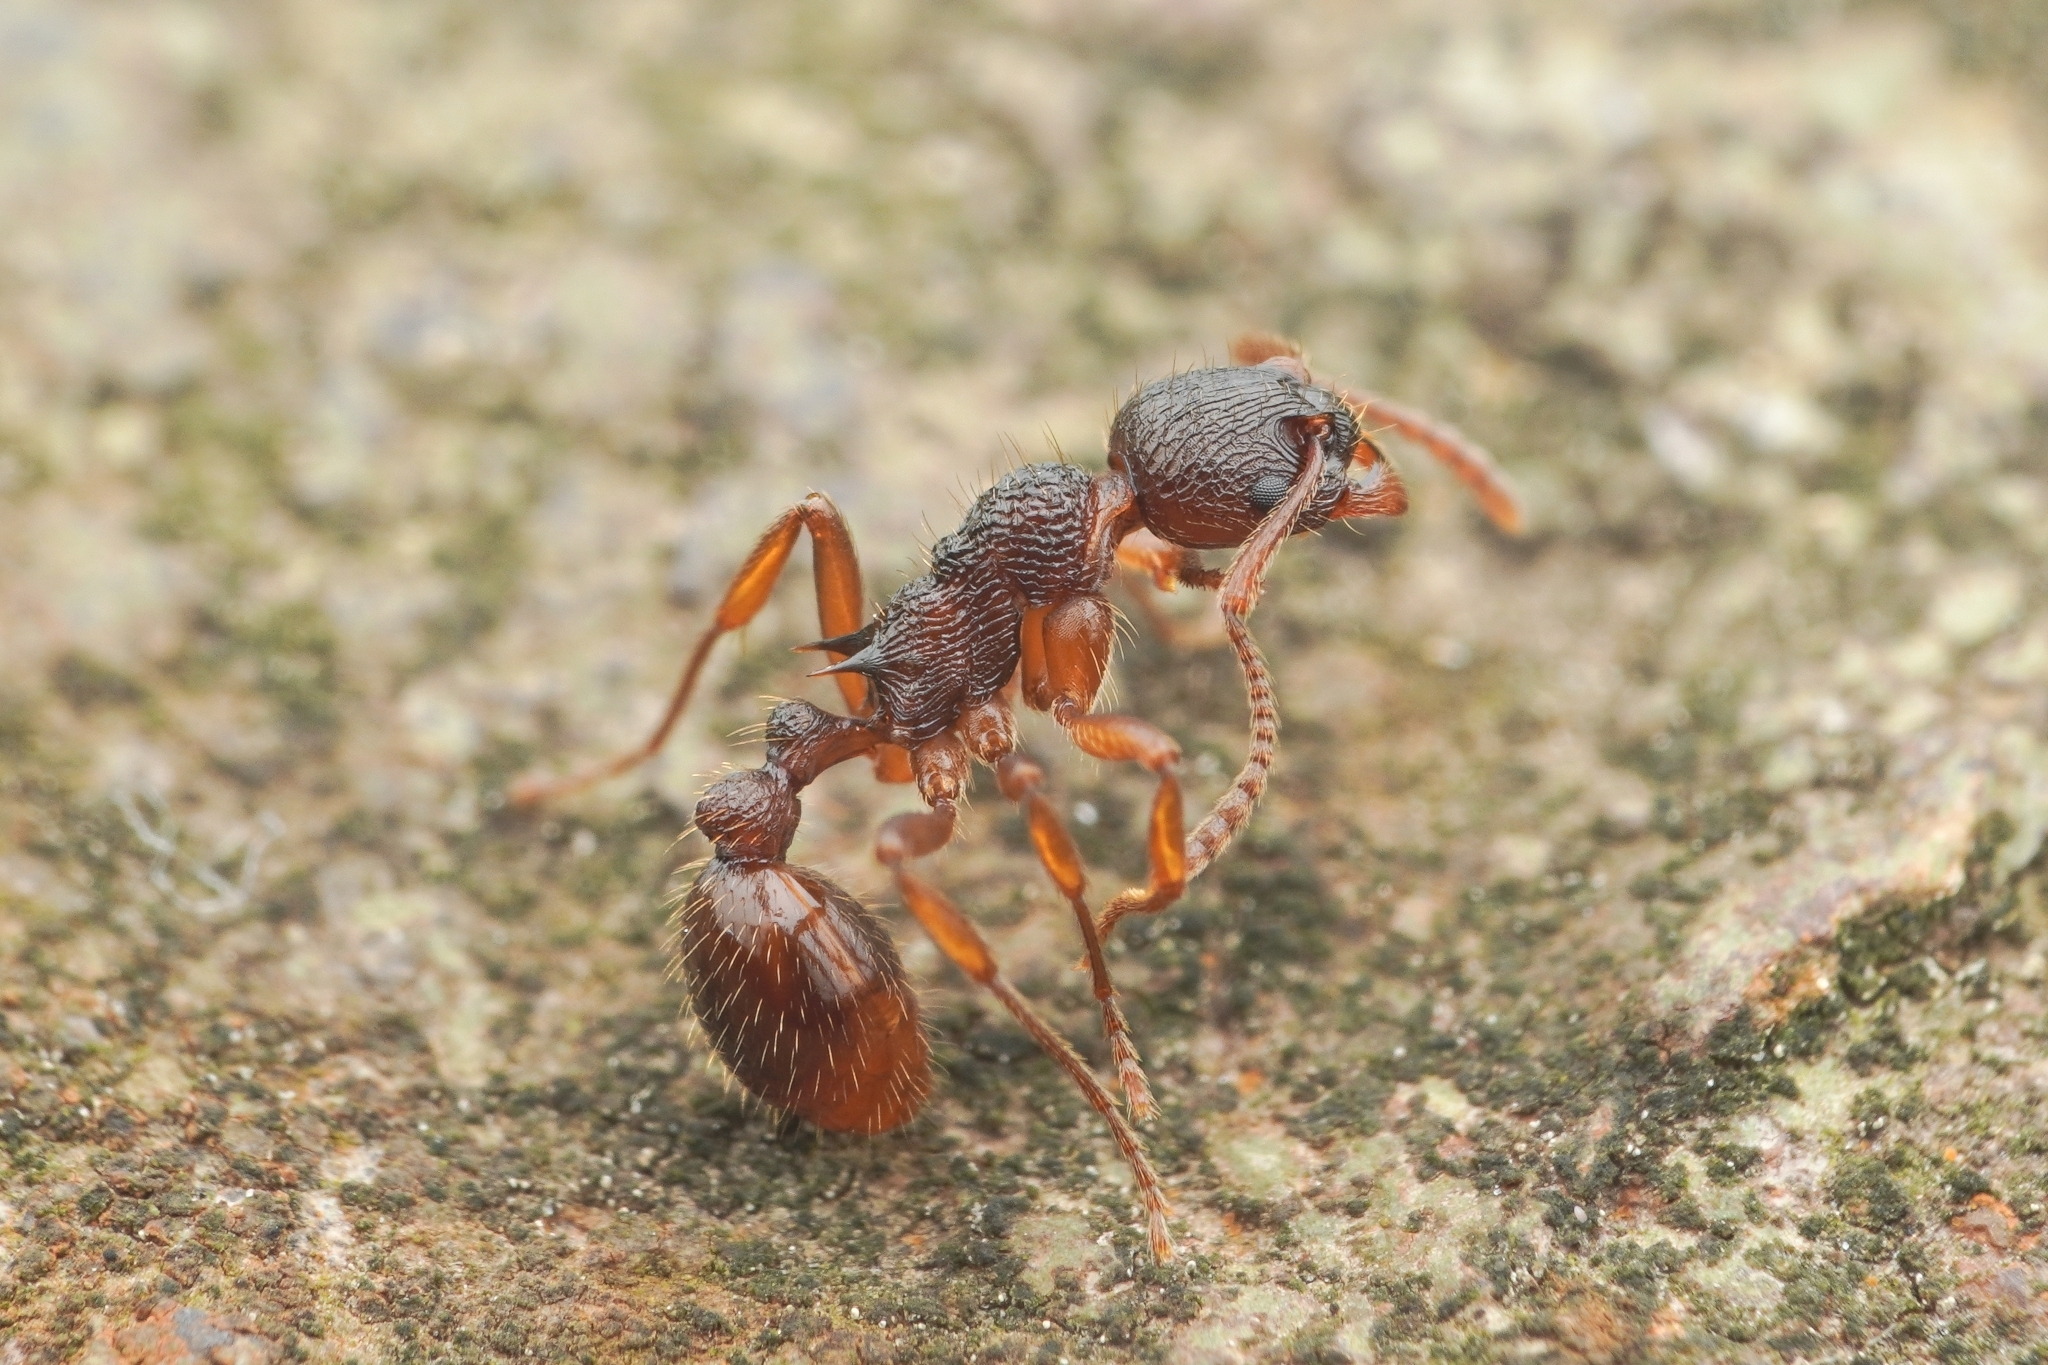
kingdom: Animalia
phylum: Arthropoda
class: Insecta
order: Hymenoptera
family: Formicidae
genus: Myrmica
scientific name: Myrmica kotokui
